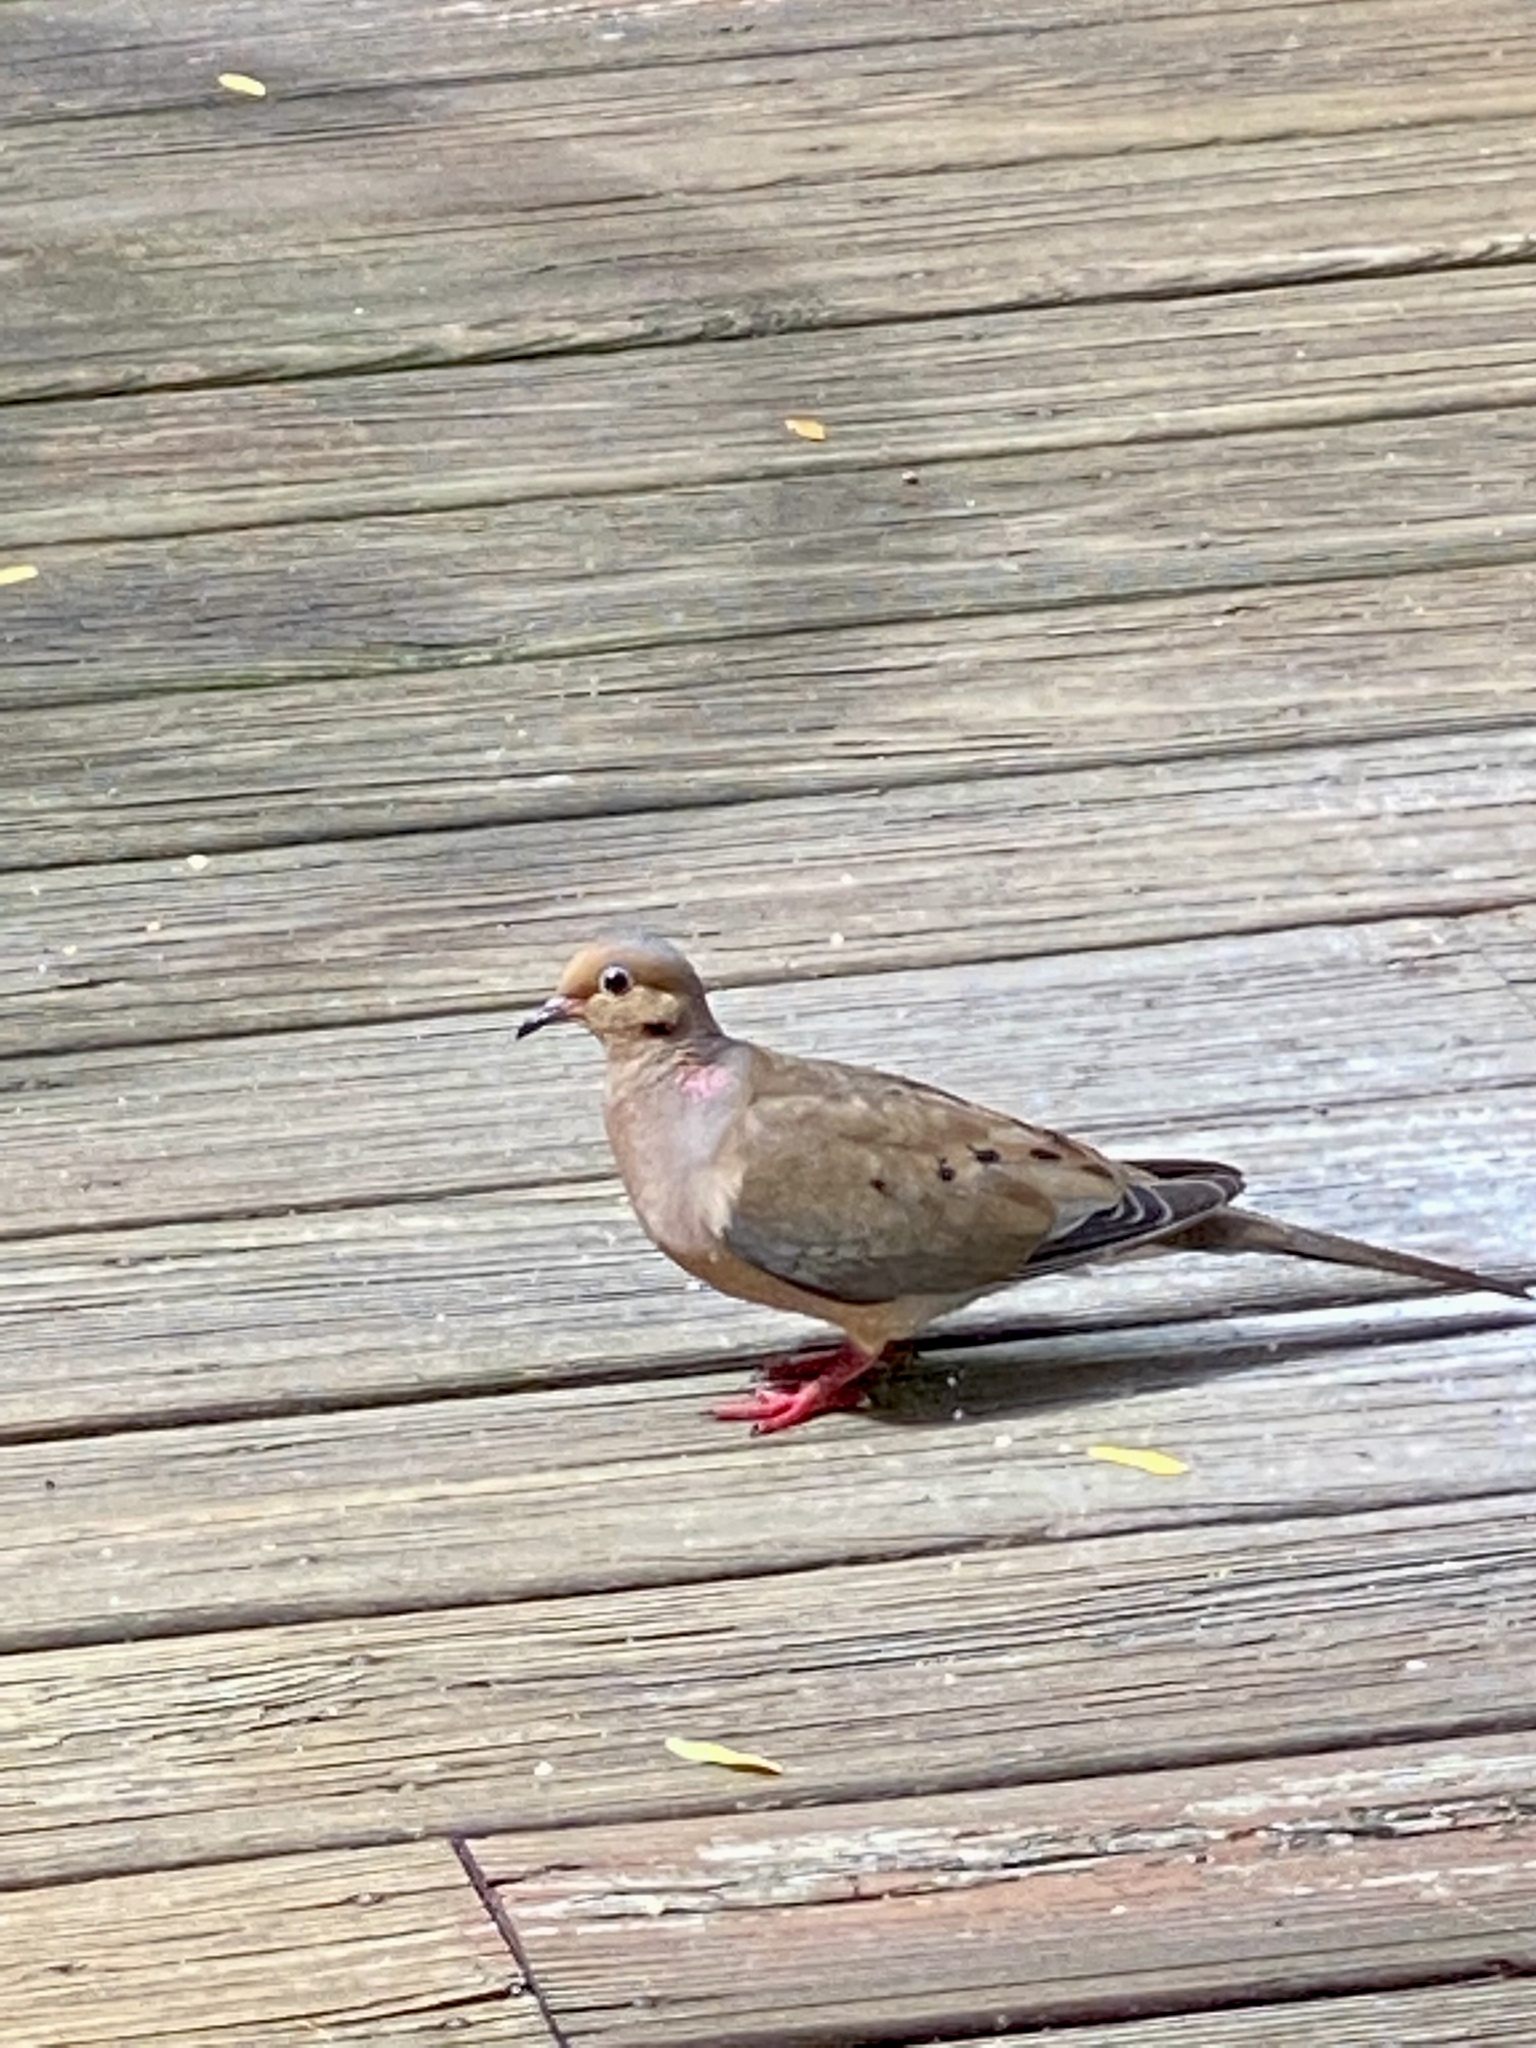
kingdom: Animalia
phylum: Chordata
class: Aves
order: Columbiformes
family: Columbidae
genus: Zenaida
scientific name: Zenaida macroura
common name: Mourning dove
